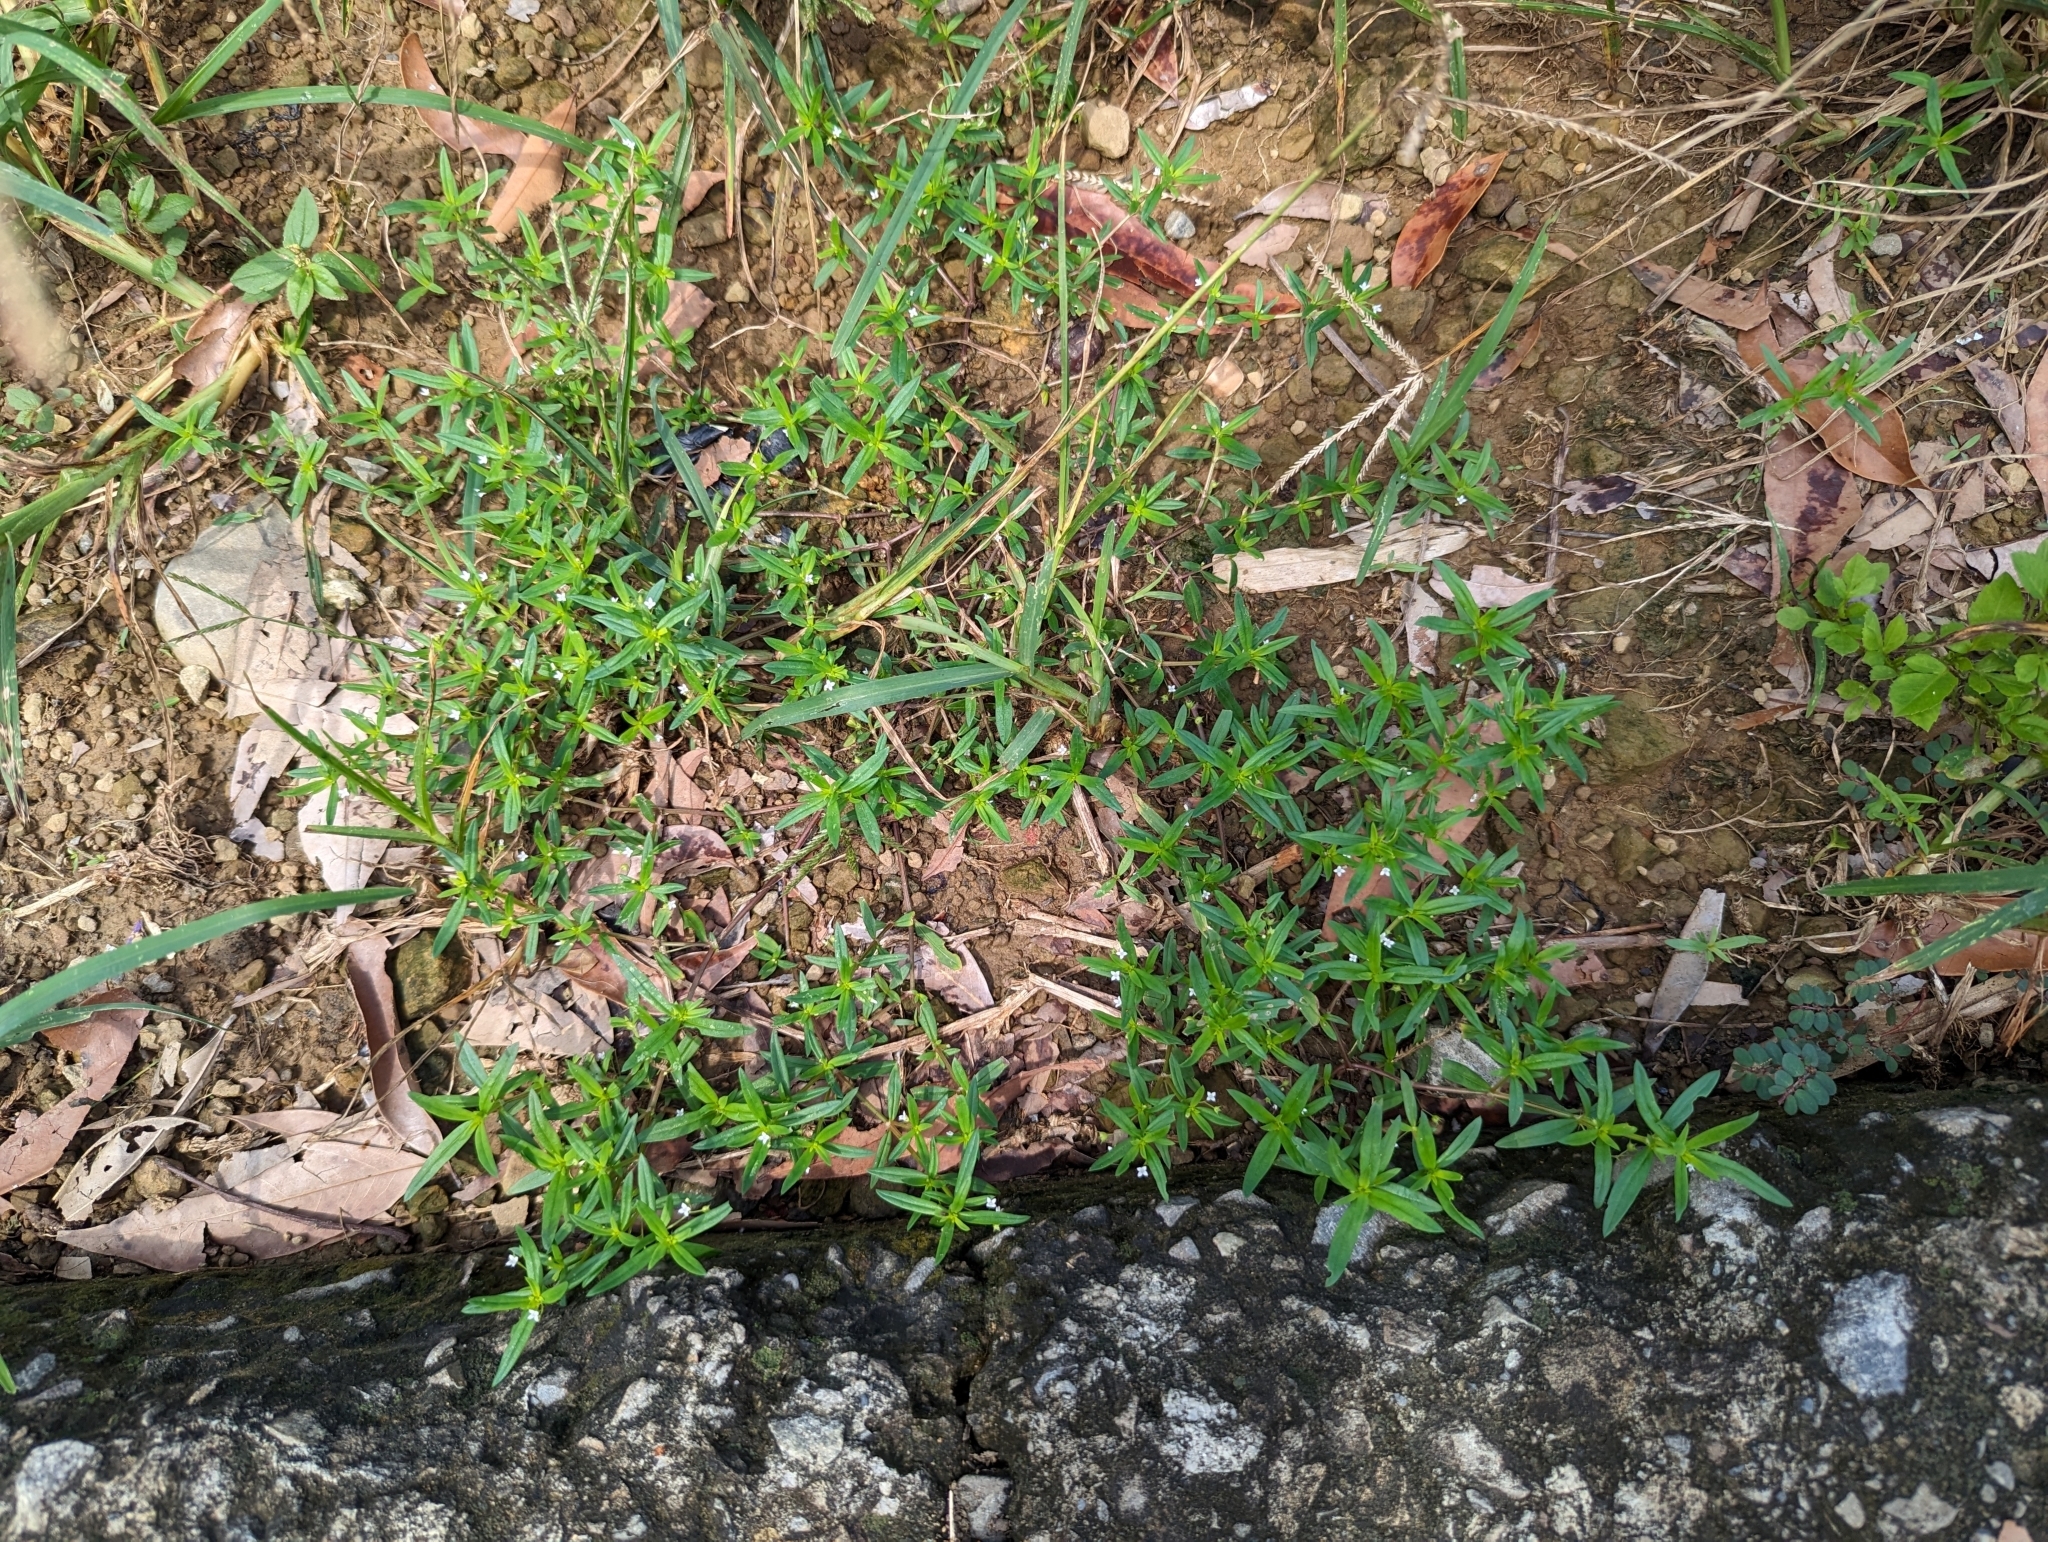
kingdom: Plantae
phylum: Tracheophyta
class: Magnoliopsida
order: Gentianales
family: Rubiaceae
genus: Oldenlandia
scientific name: Oldenlandia corymbosa
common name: Flat-top mille graines
